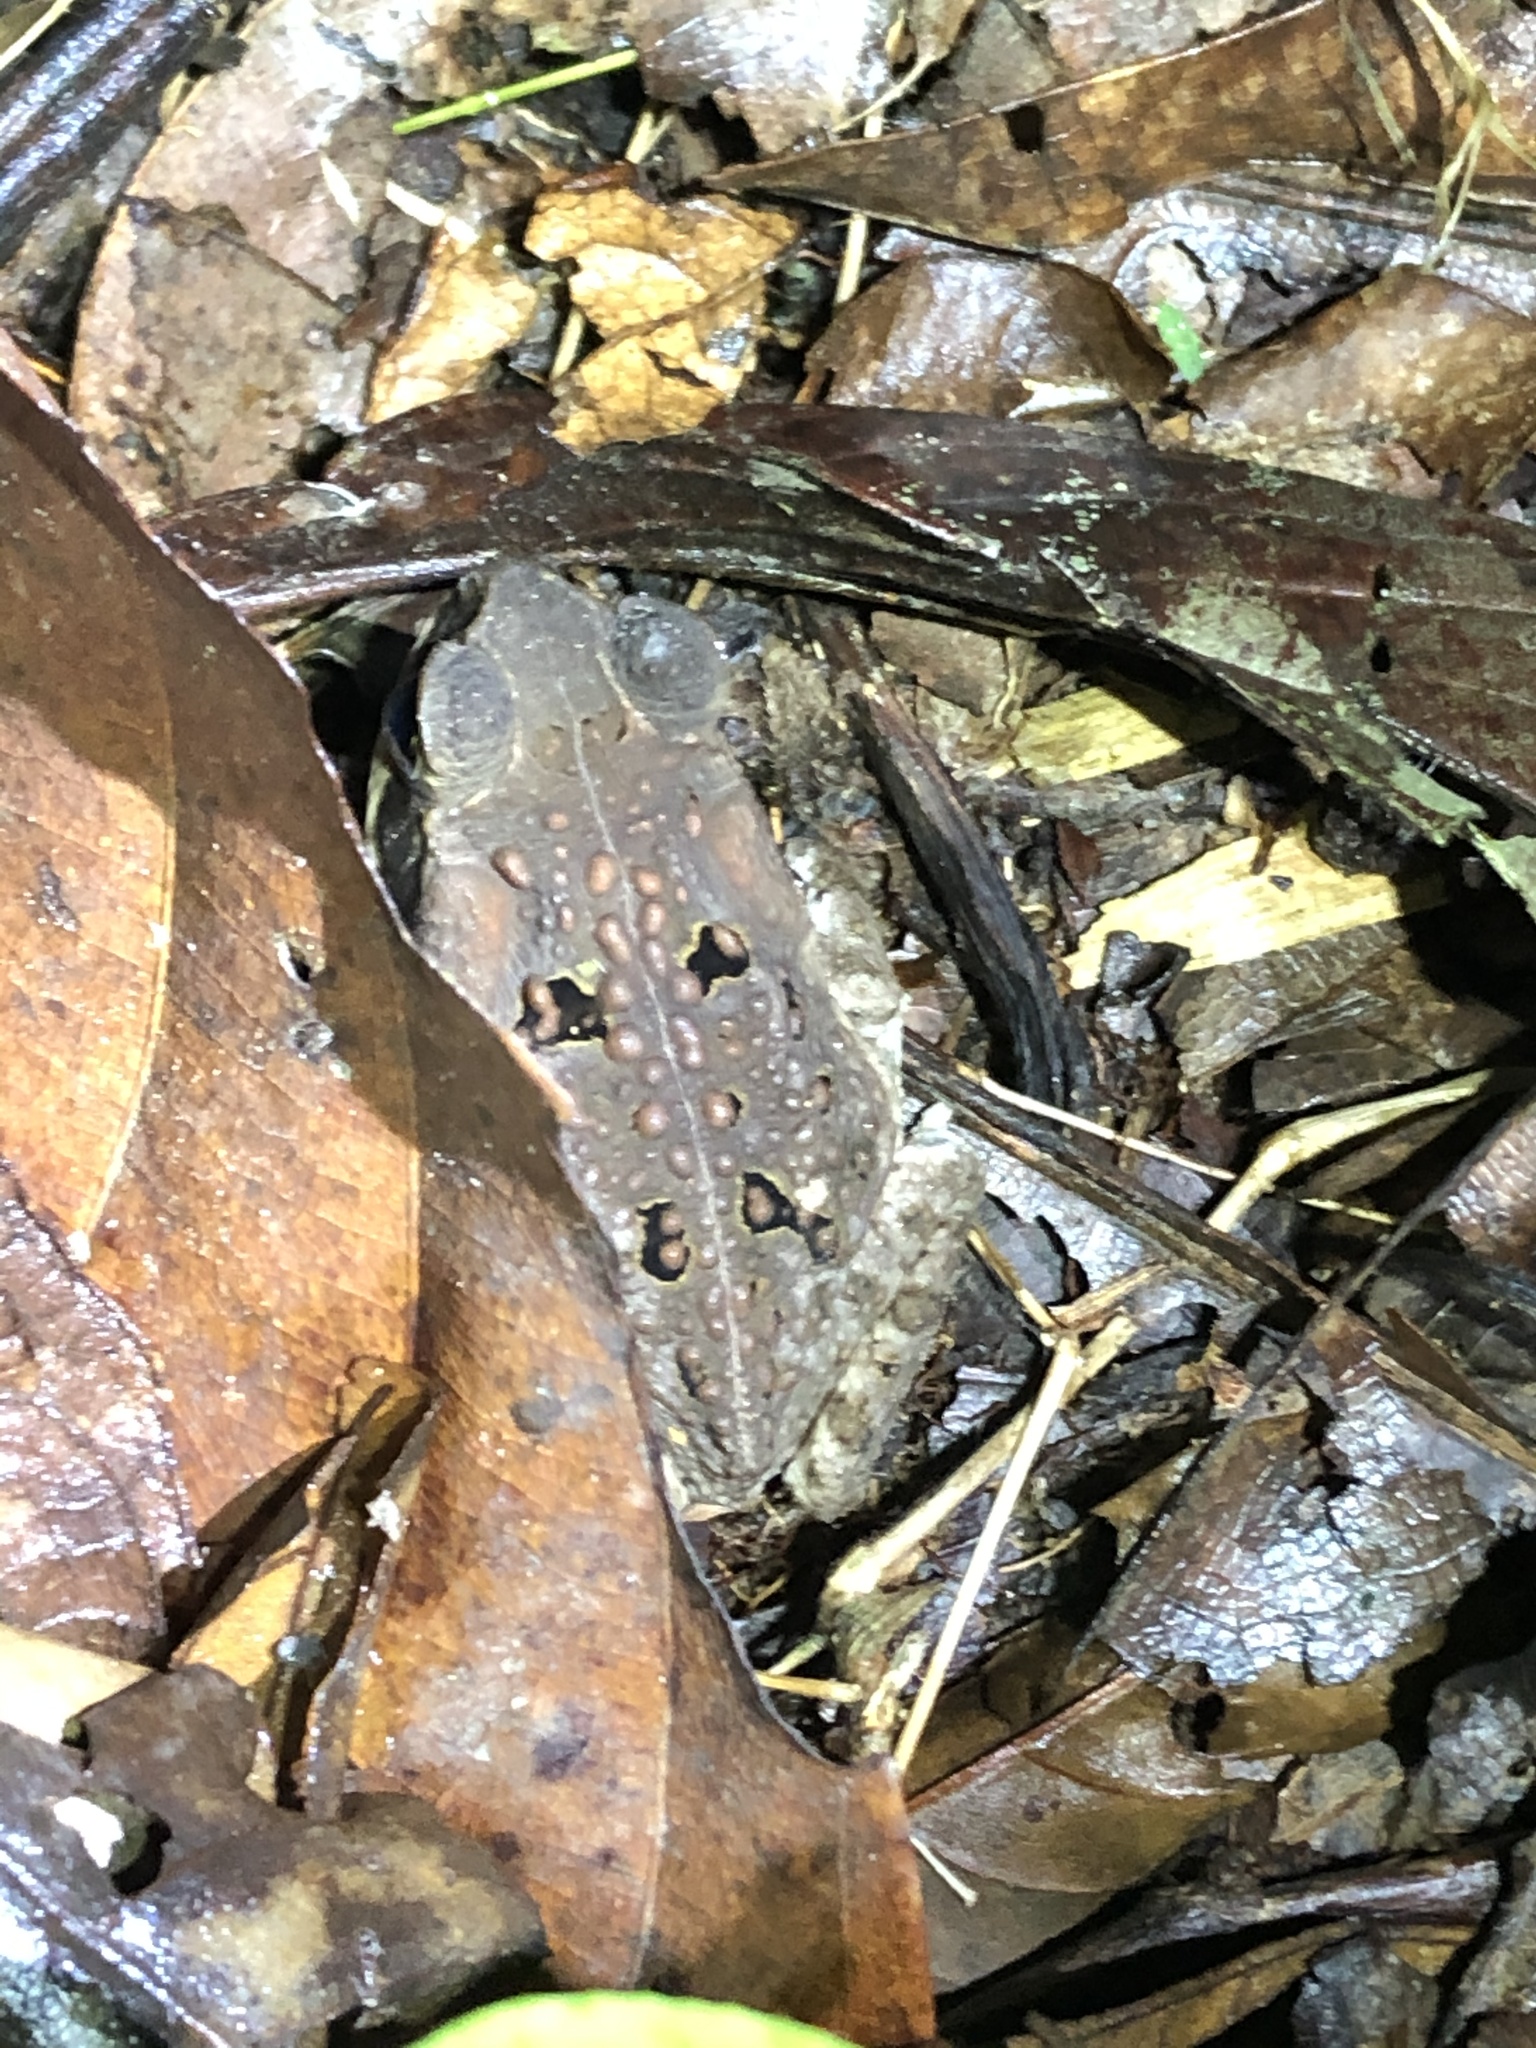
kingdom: Animalia
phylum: Chordata
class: Amphibia
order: Anura
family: Bufonidae
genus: Rhinella
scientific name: Rhinella marina
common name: Cane toad
